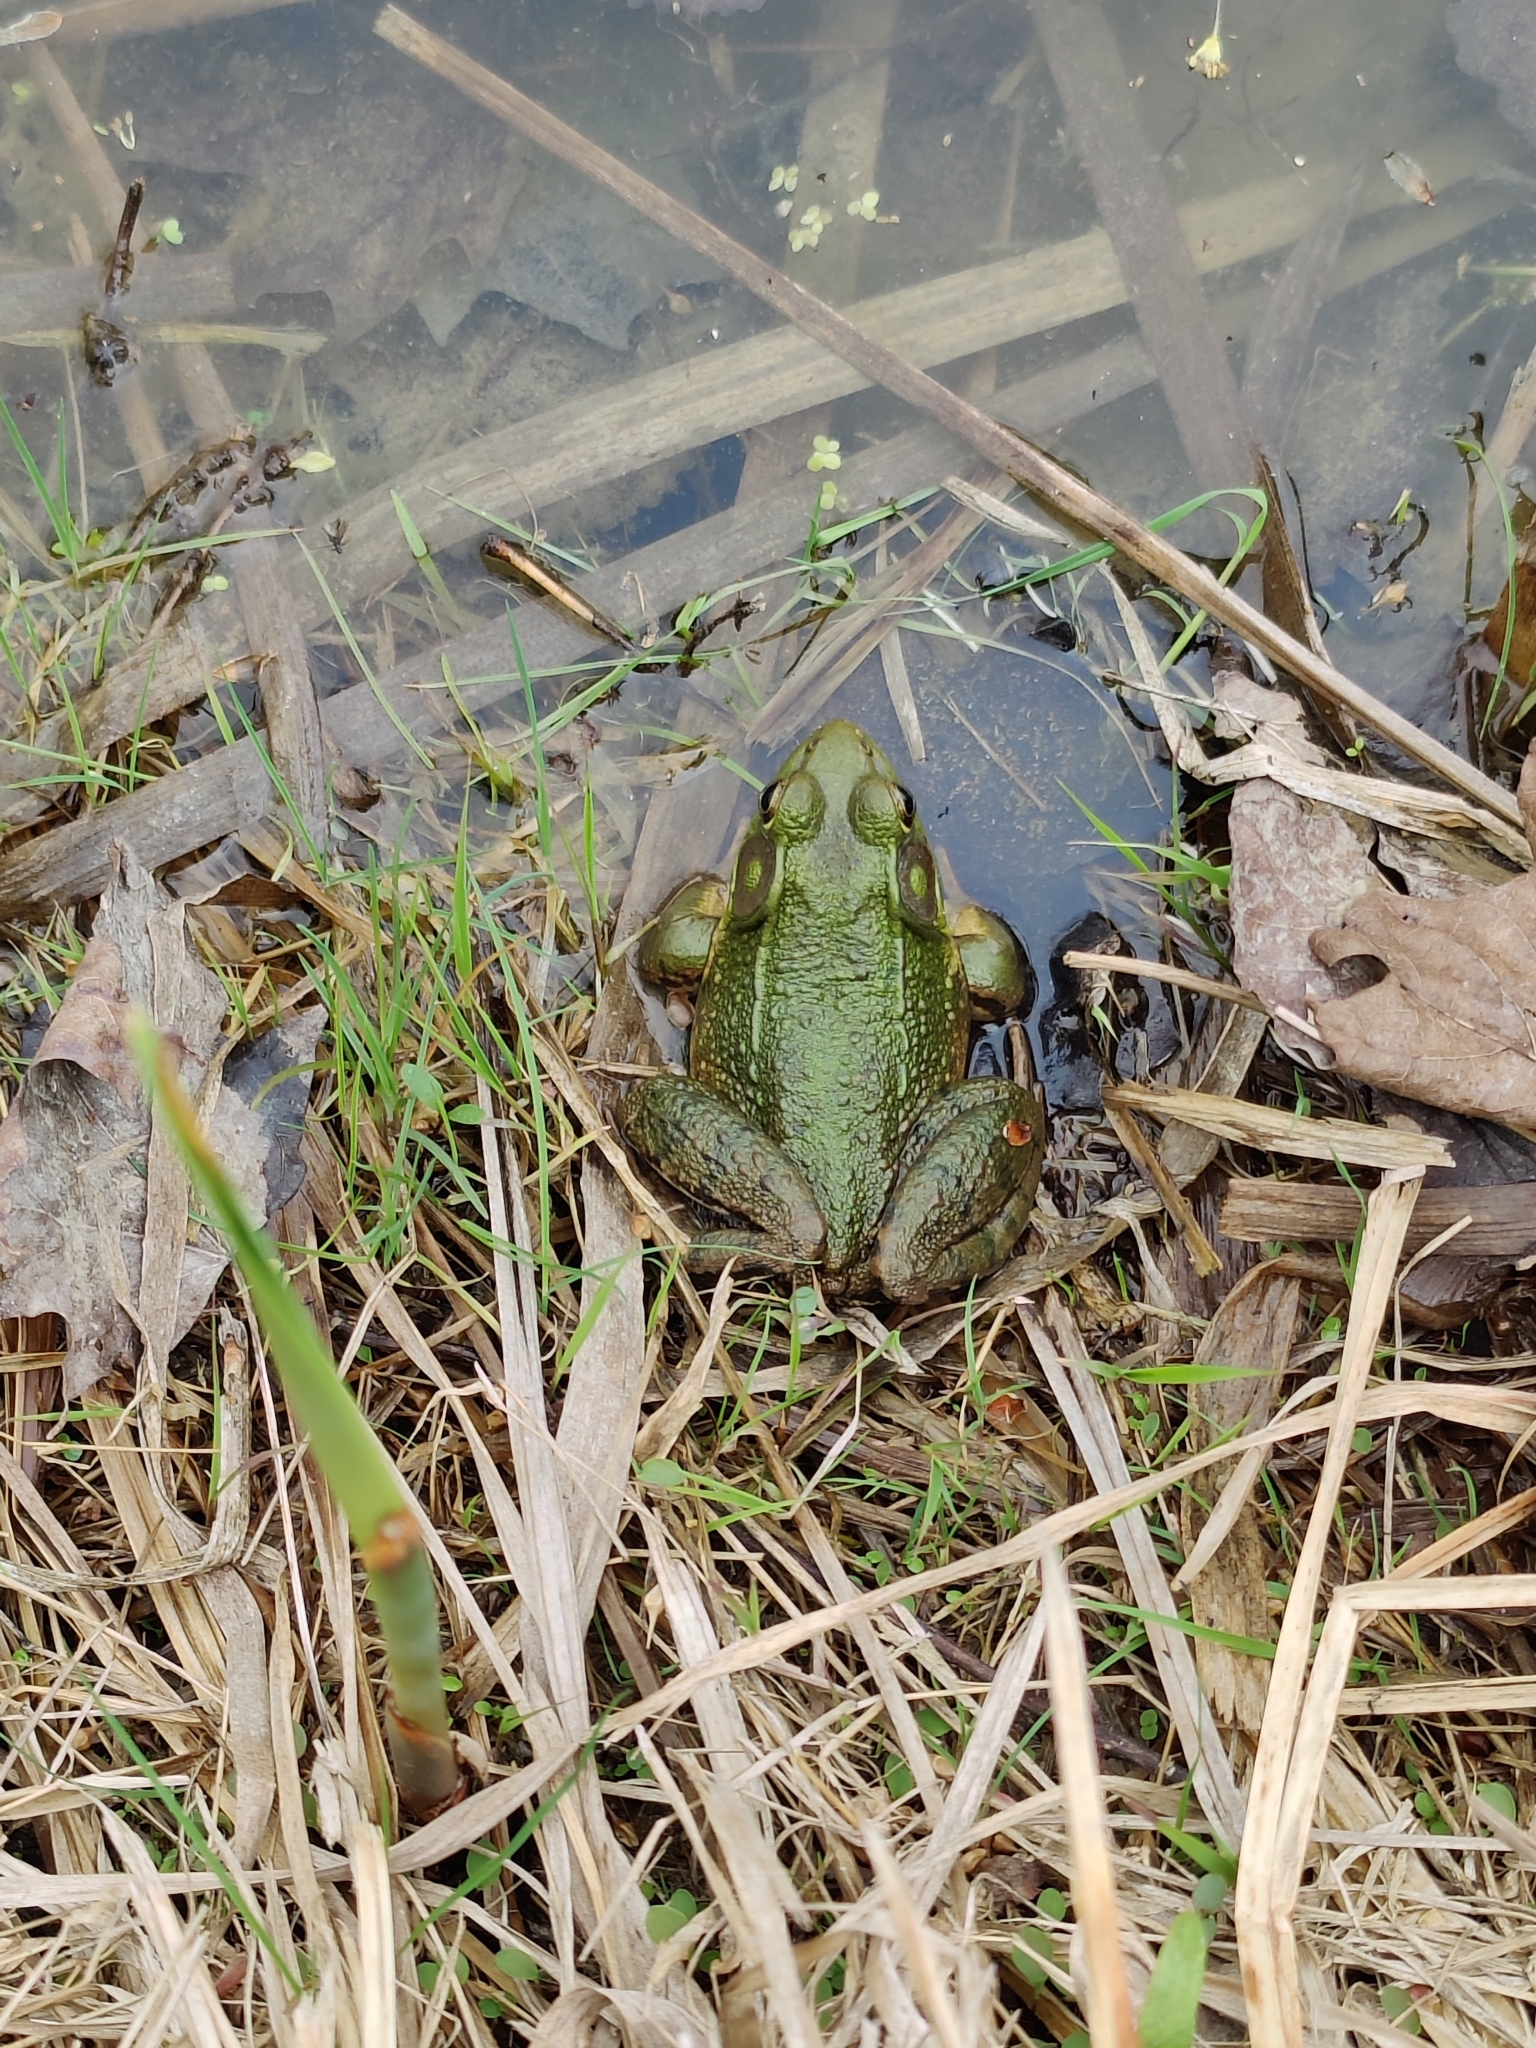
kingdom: Animalia
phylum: Chordata
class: Amphibia
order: Anura
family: Ranidae
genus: Lithobates
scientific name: Lithobates clamitans
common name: Green frog
